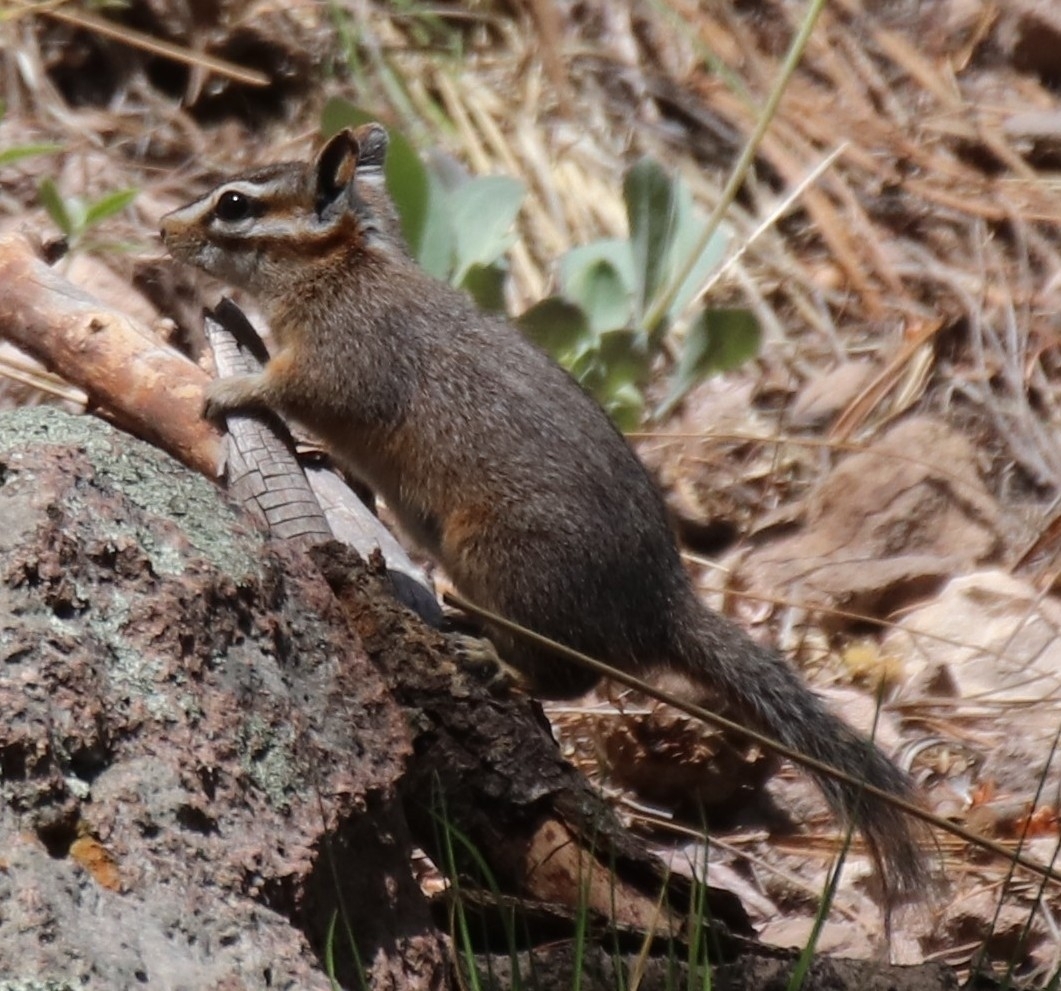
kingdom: Animalia
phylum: Chordata
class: Mammalia
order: Rodentia
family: Sciuridae
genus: Tamias
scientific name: Tamias dorsalis
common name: Cliff chipmunk
